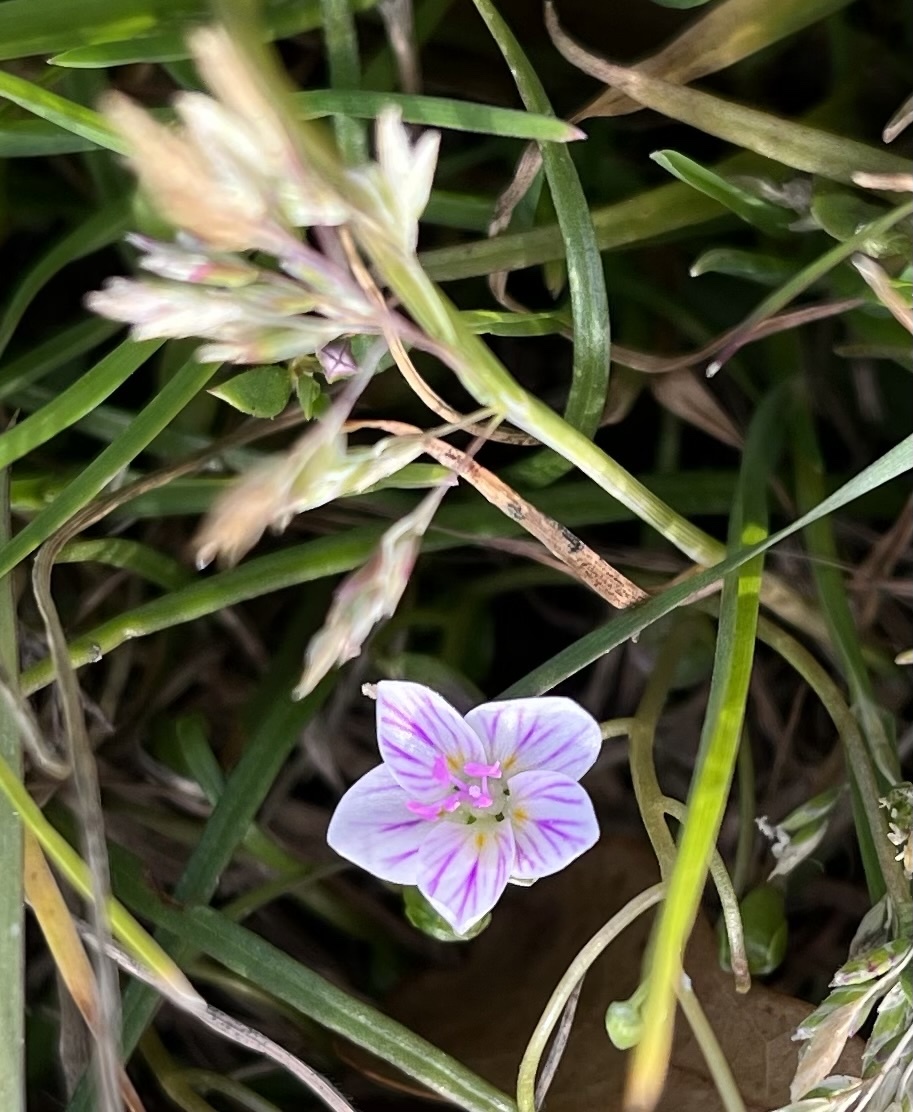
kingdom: Plantae
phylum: Tracheophyta
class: Magnoliopsida
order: Caryophyllales
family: Montiaceae
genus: Claytonia
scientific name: Claytonia virginica
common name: Virginia springbeauty
